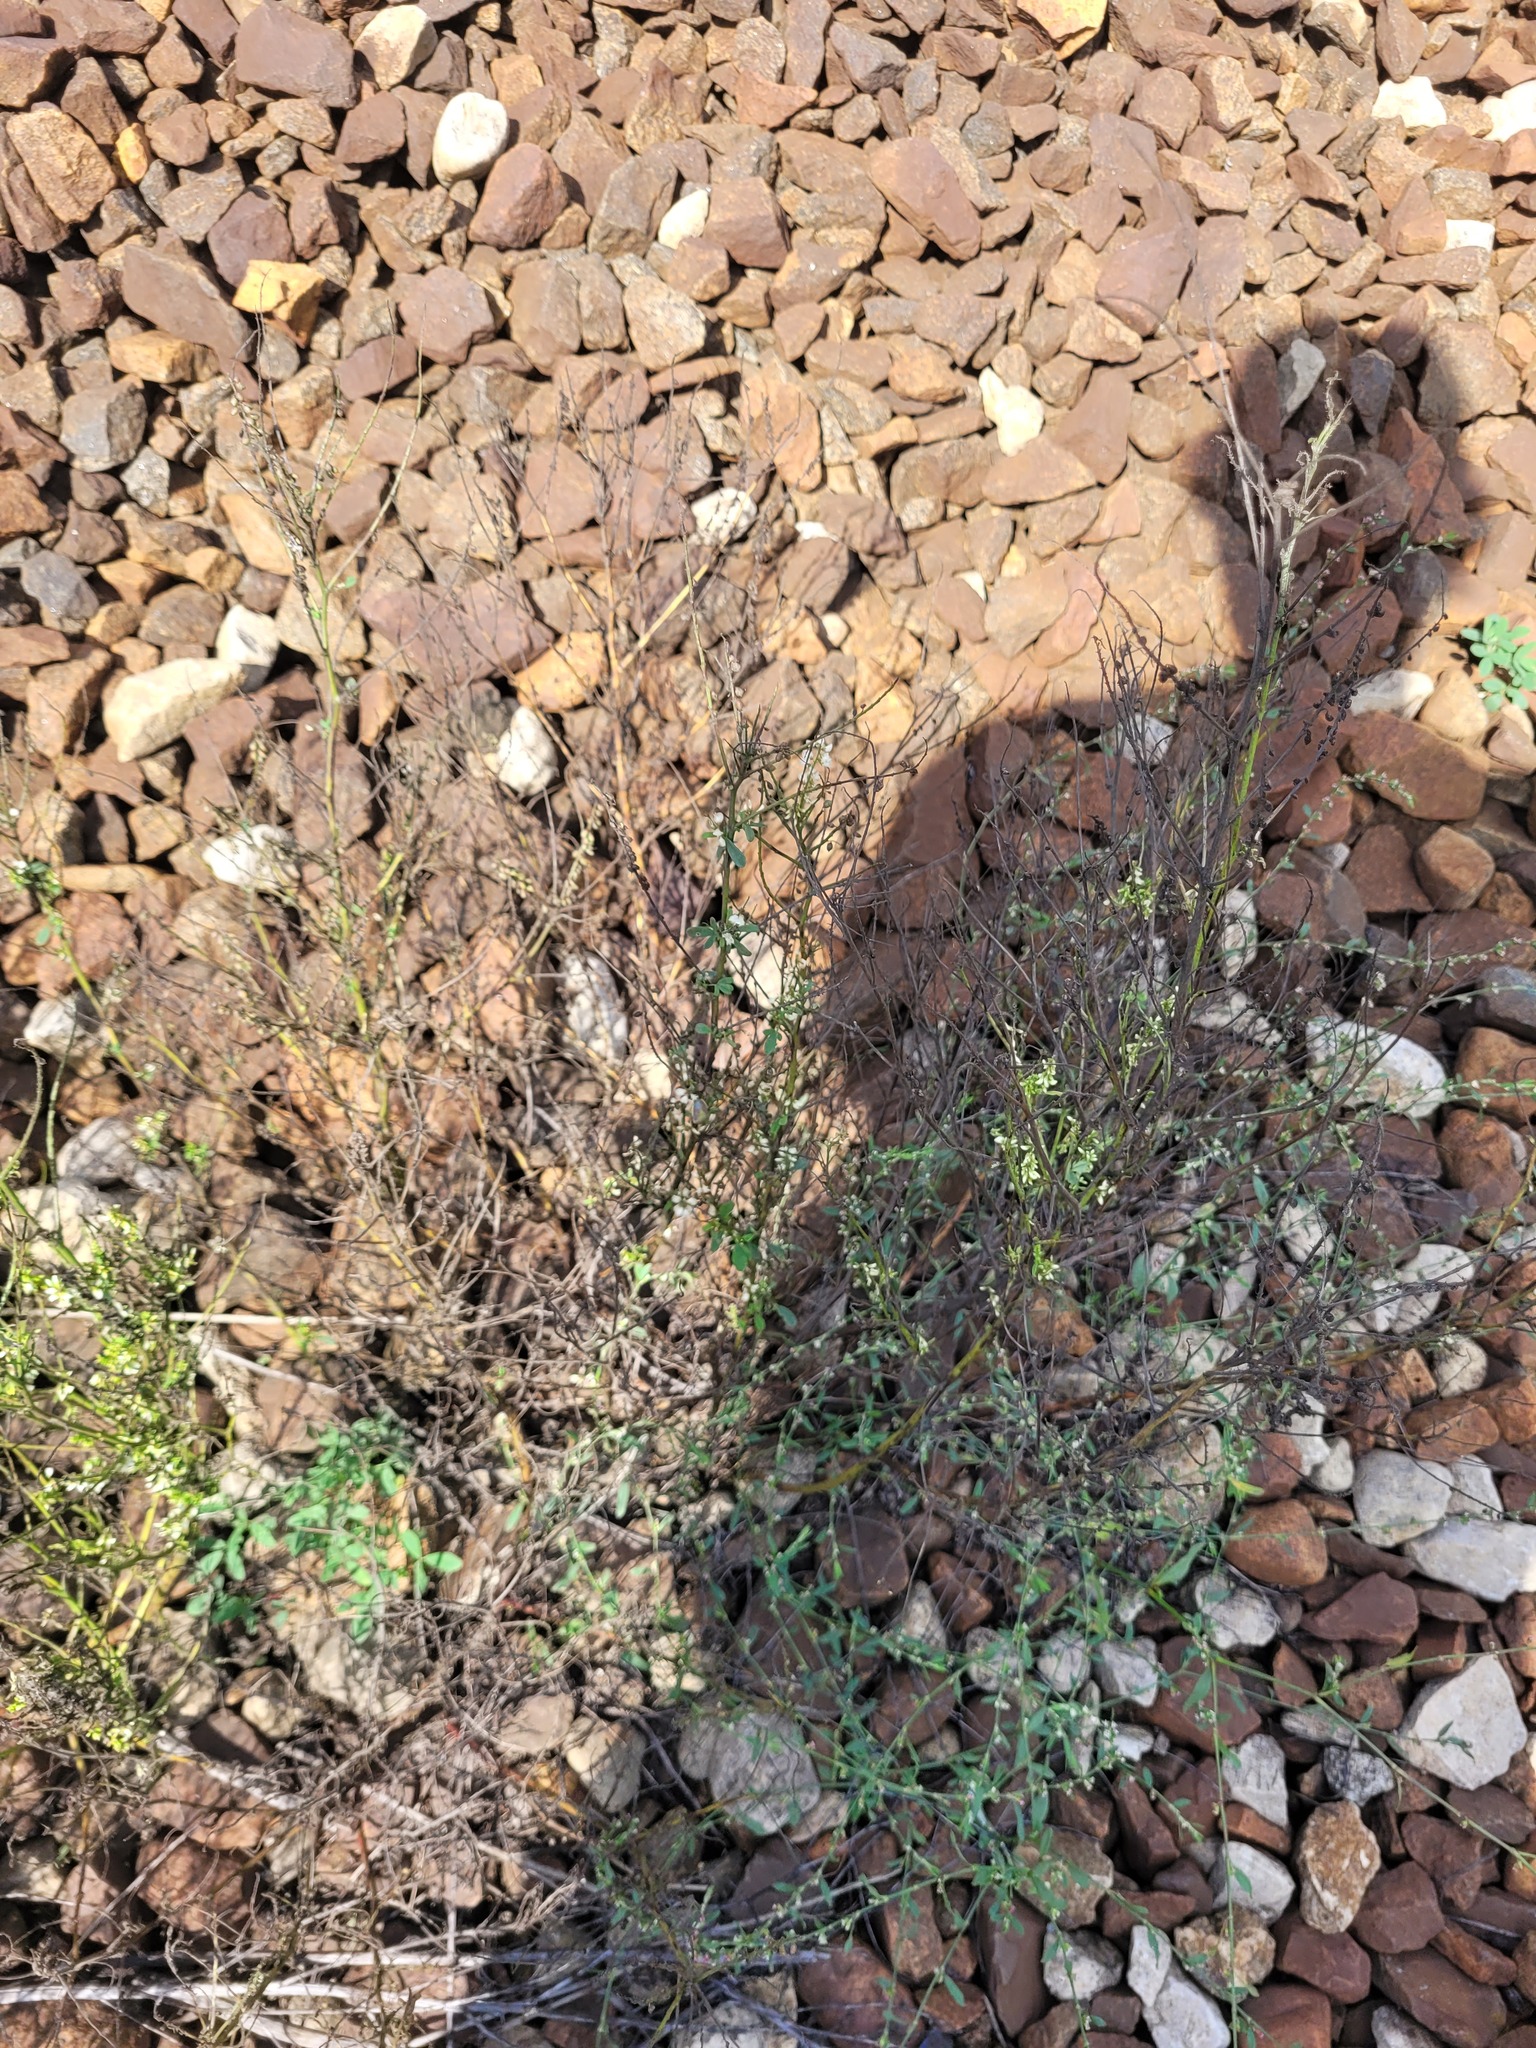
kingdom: Plantae
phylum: Tracheophyta
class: Magnoliopsida
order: Fabales
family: Fabaceae
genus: Melilotus
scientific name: Melilotus albus
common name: White melilot
